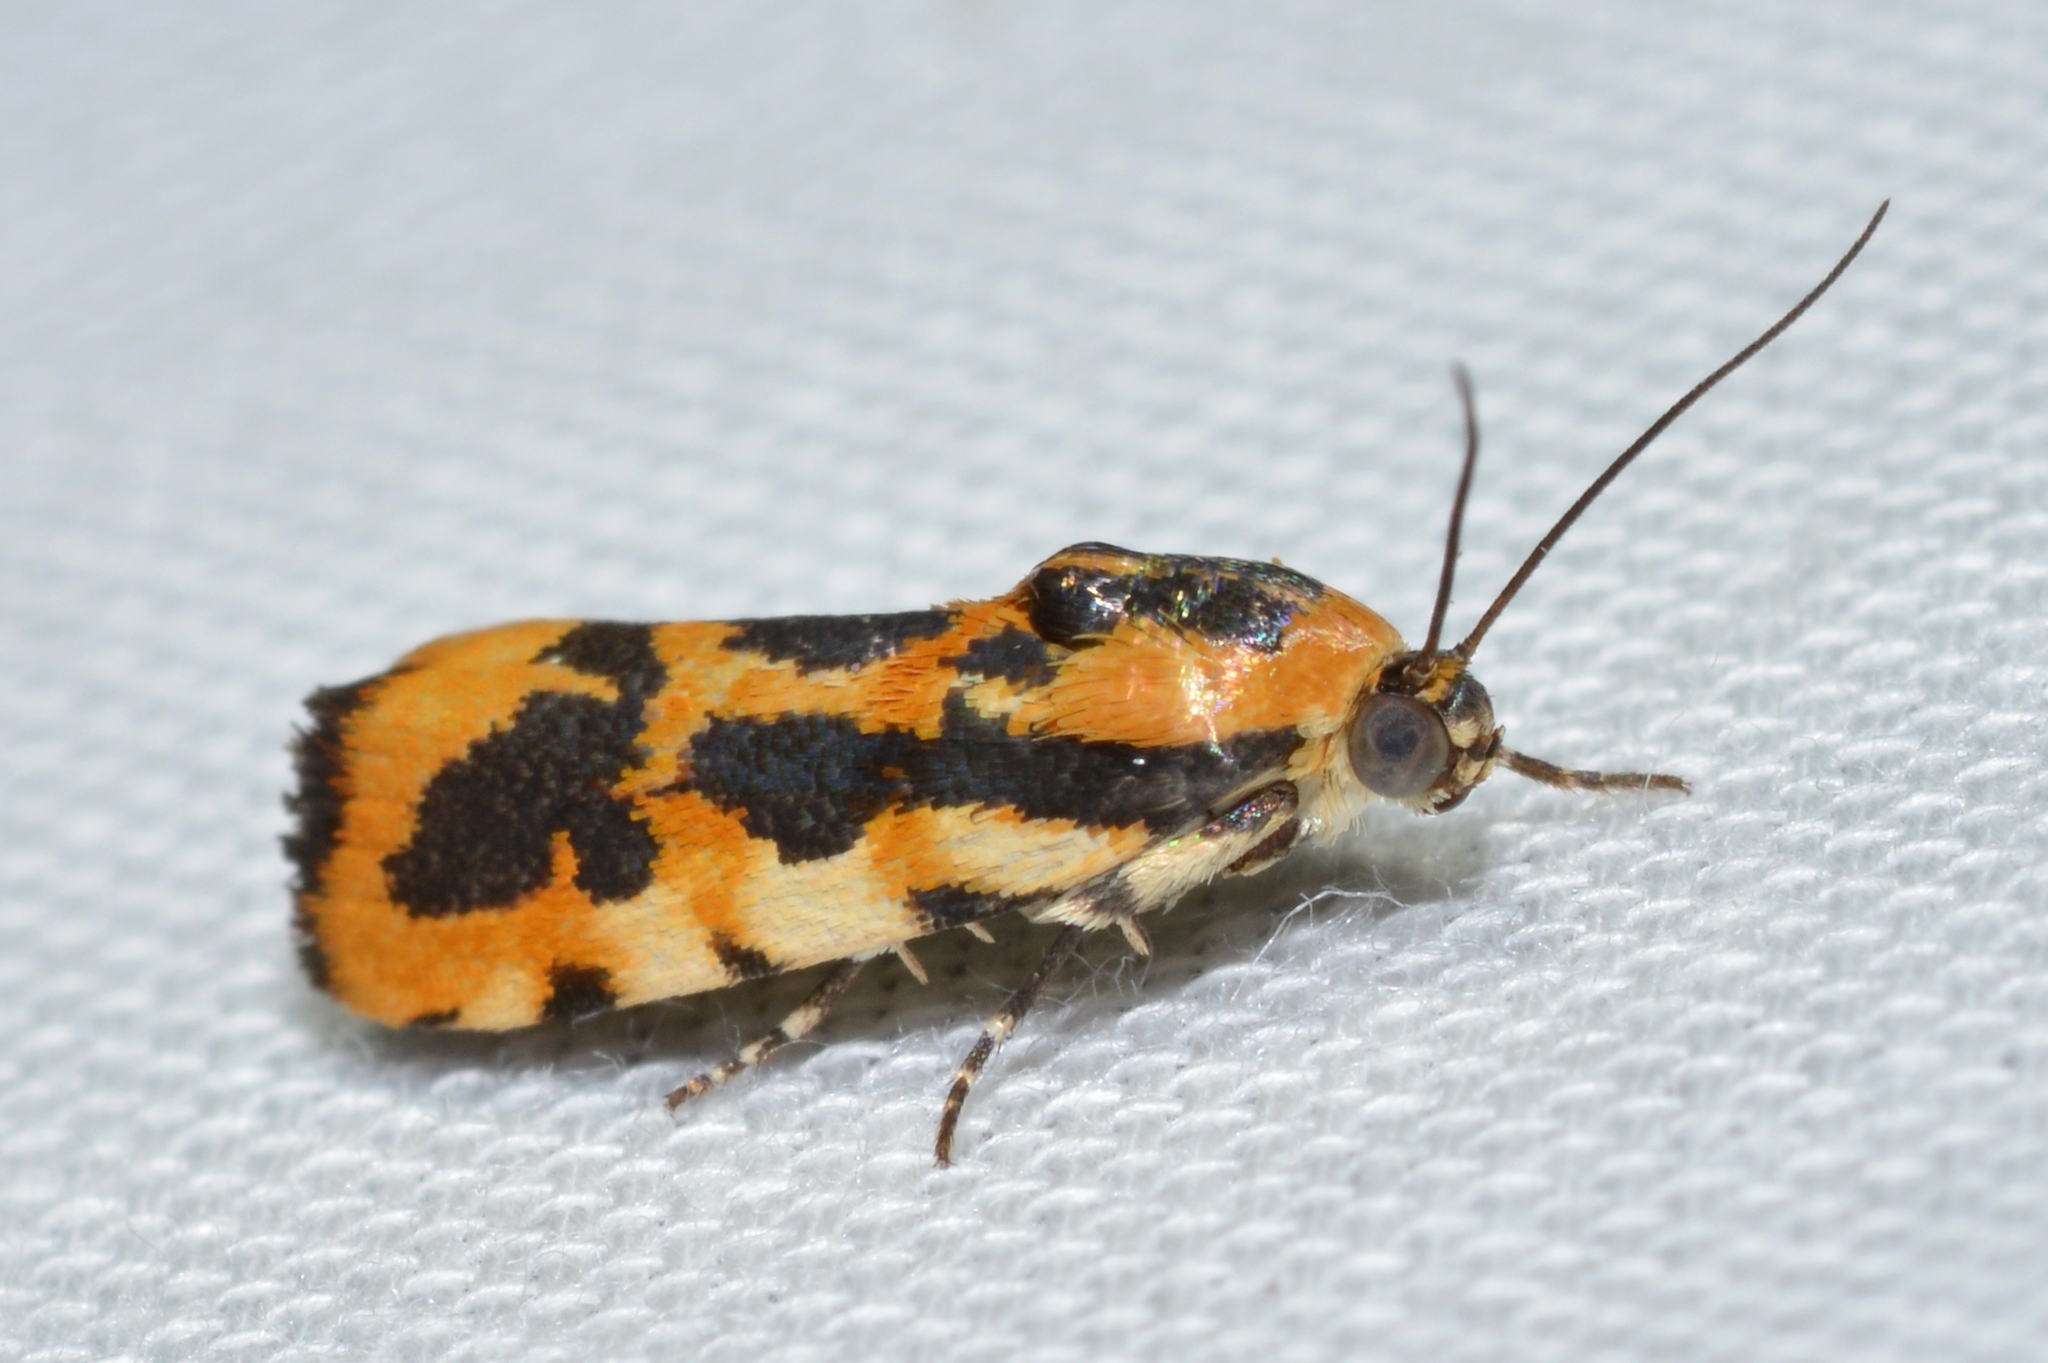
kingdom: Animalia
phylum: Arthropoda
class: Insecta
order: Lepidoptera
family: Noctuidae
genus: Acontia
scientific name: Acontia leo
